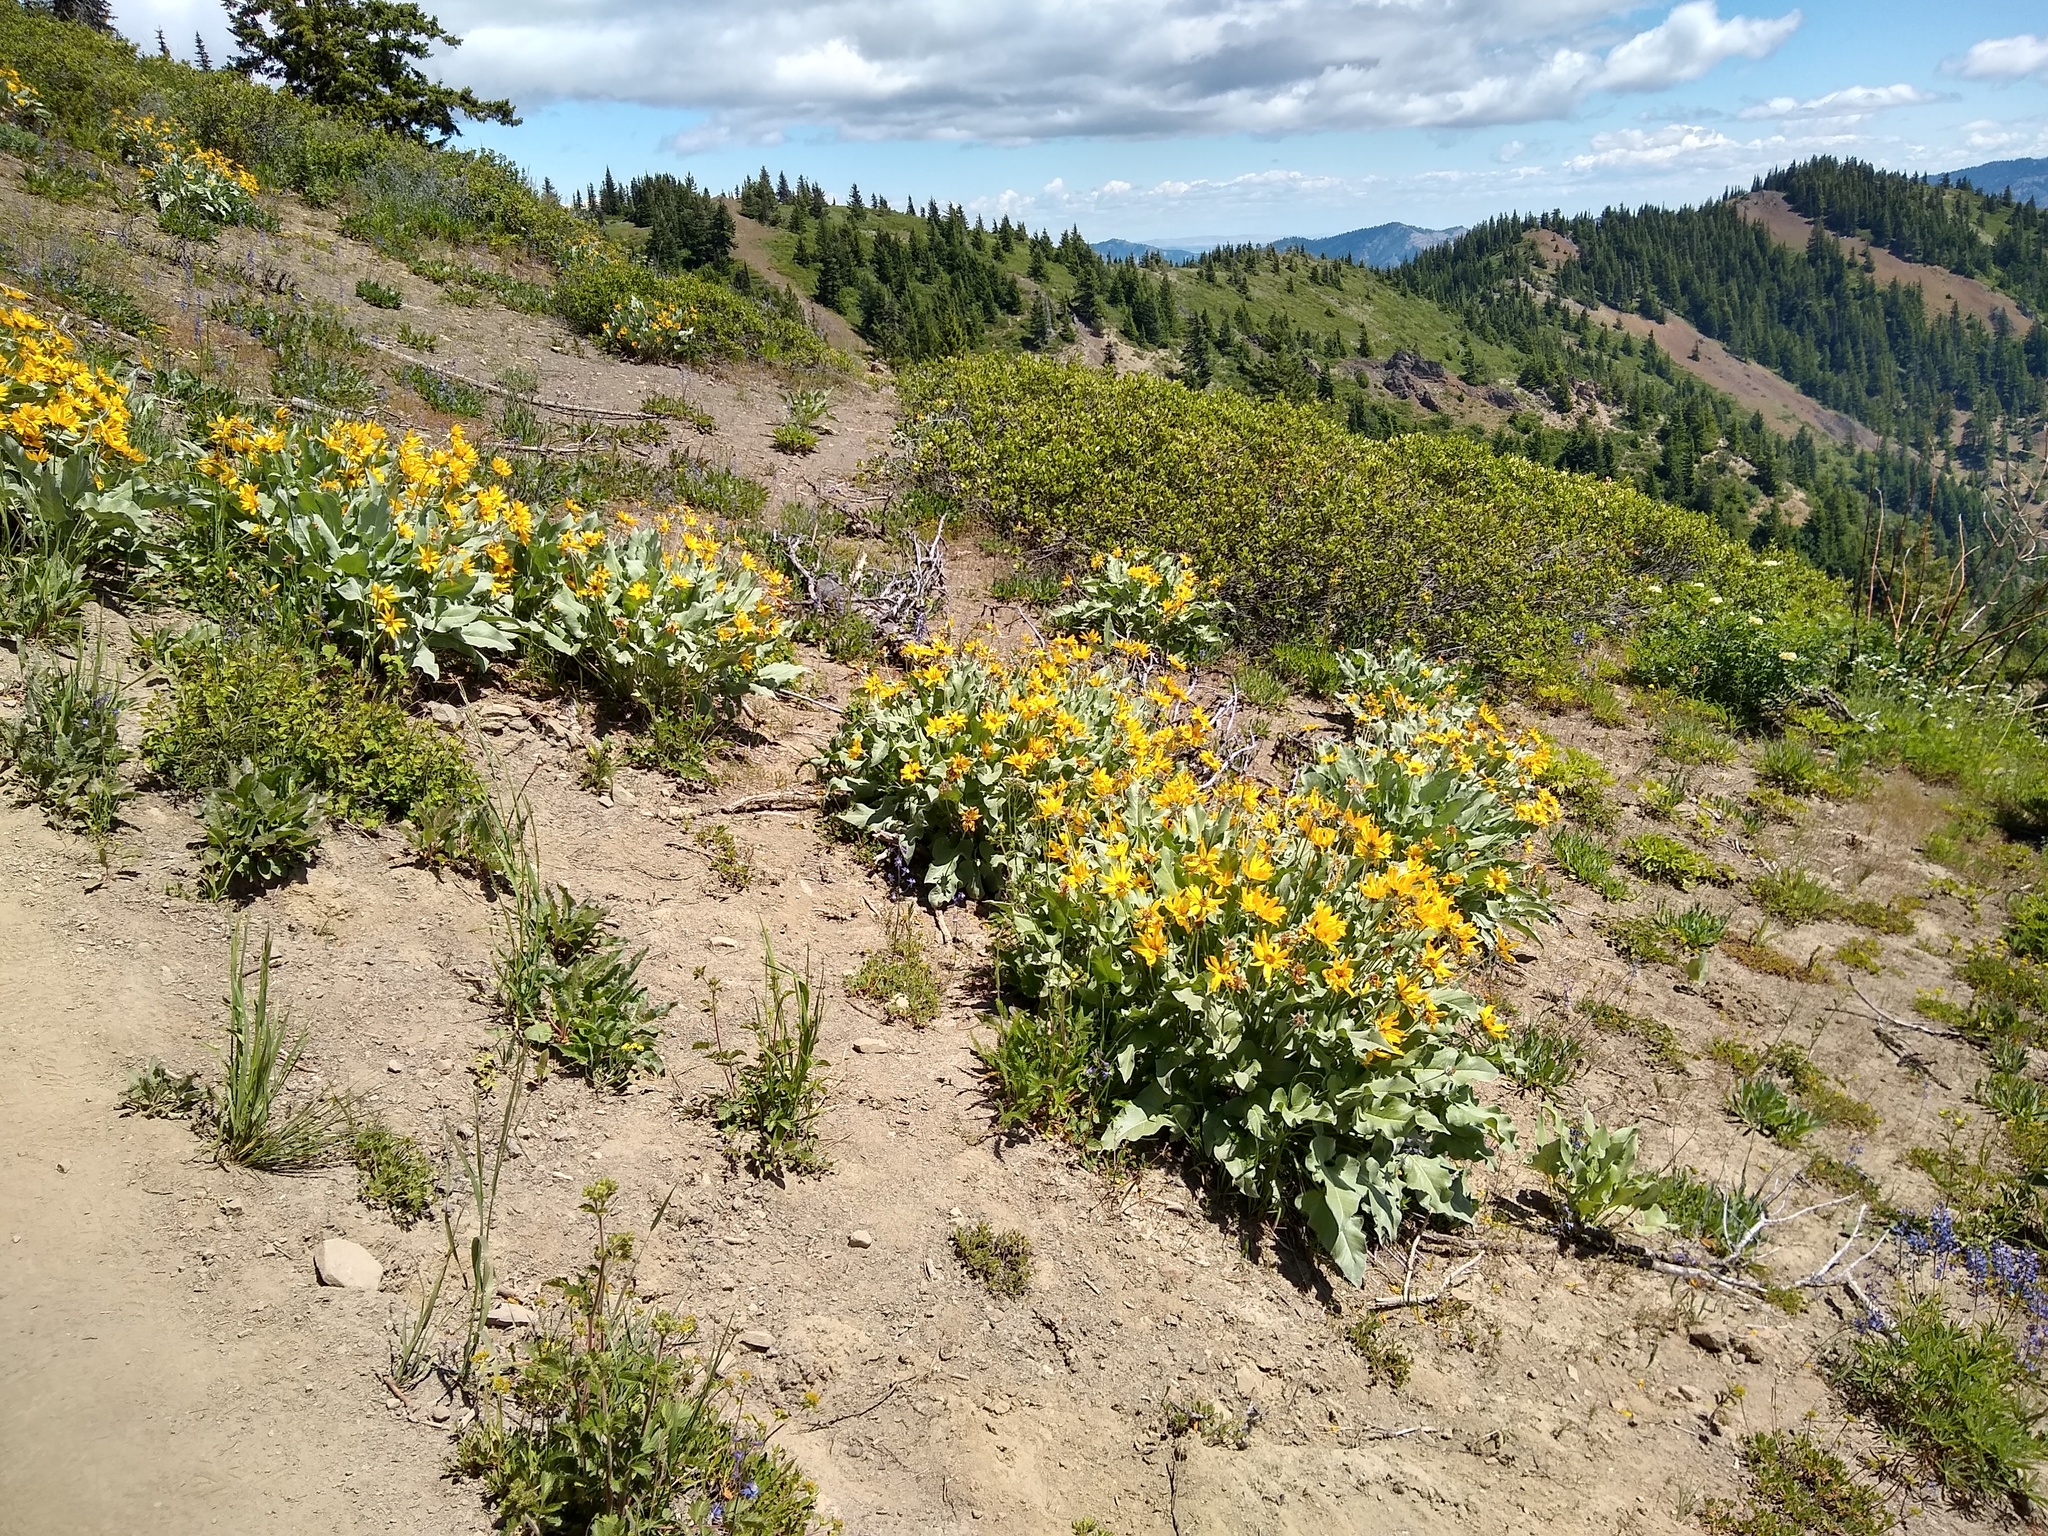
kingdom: Plantae
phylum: Tracheophyta
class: Magnoliopsida
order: Asterales
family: Asteraceae
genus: Wyethia
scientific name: Wyethia sagittata
